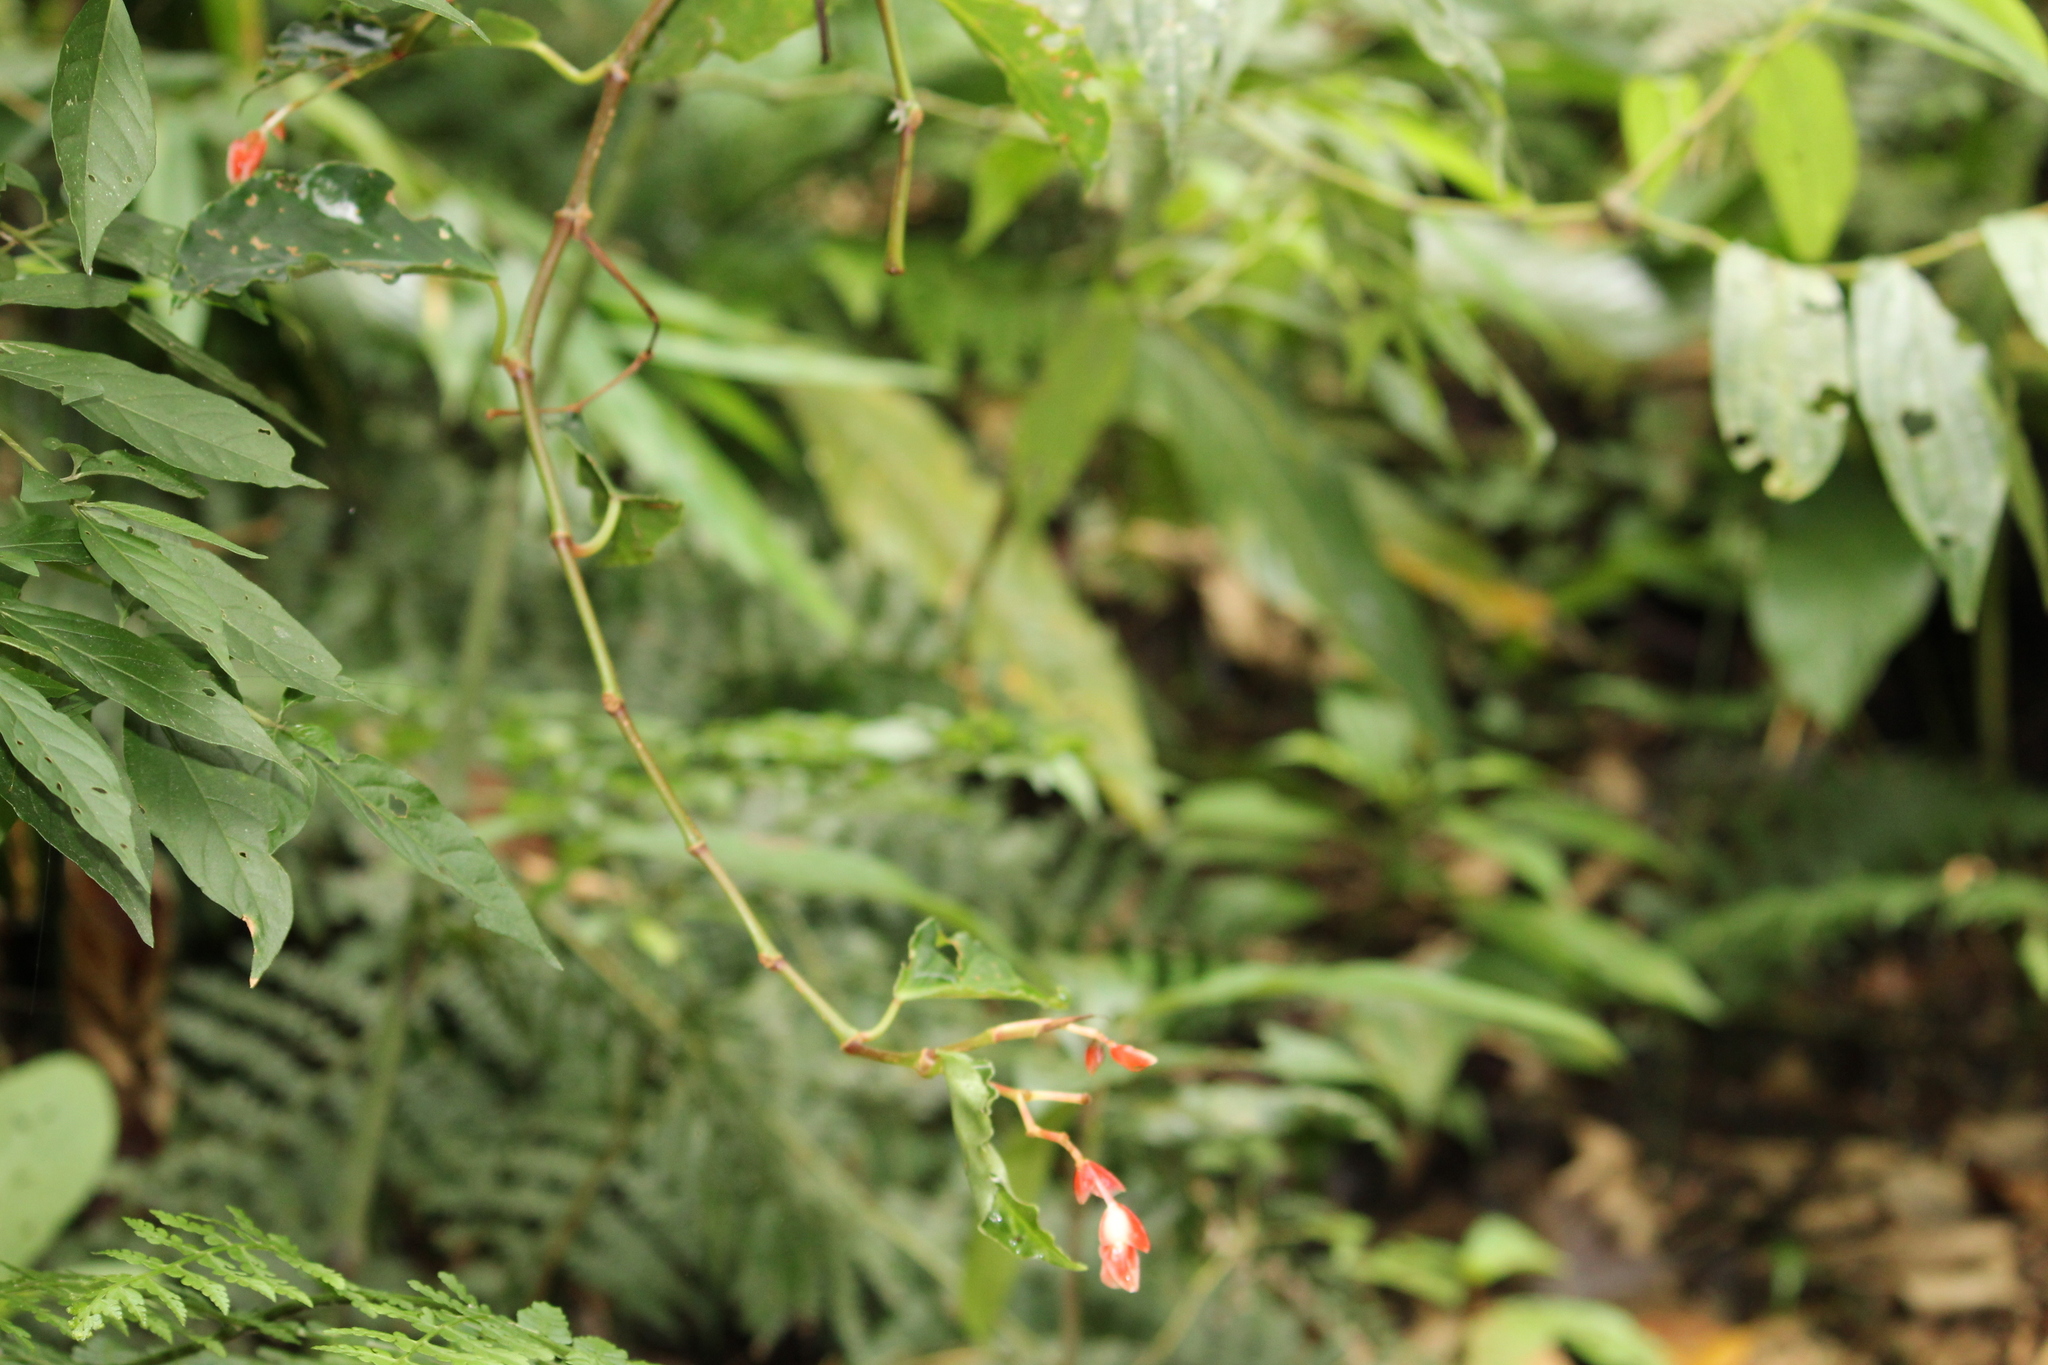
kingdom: Plantae
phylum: Tracheophyta
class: Magnoliopsida
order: Cucurbitales
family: Begoniaceae
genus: Begonia
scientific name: Begonia radicans
